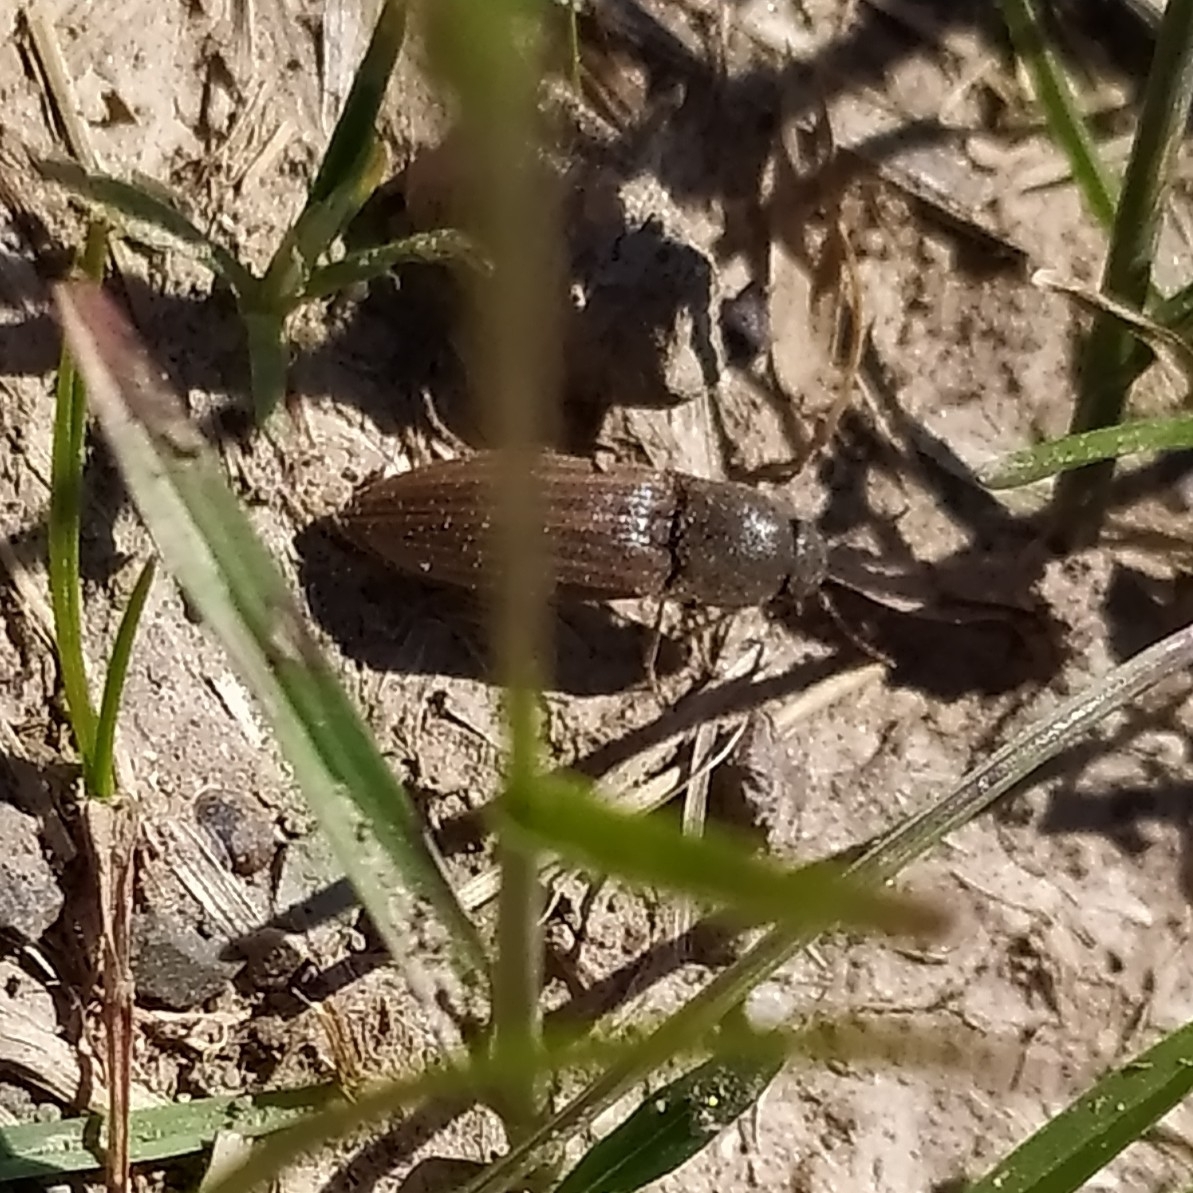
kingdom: Animalia
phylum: Arthropoda
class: Insecta
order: Coleoptera
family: Elateridae
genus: Agriotes
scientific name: Agriotes lineatus
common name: Lined click beetle
